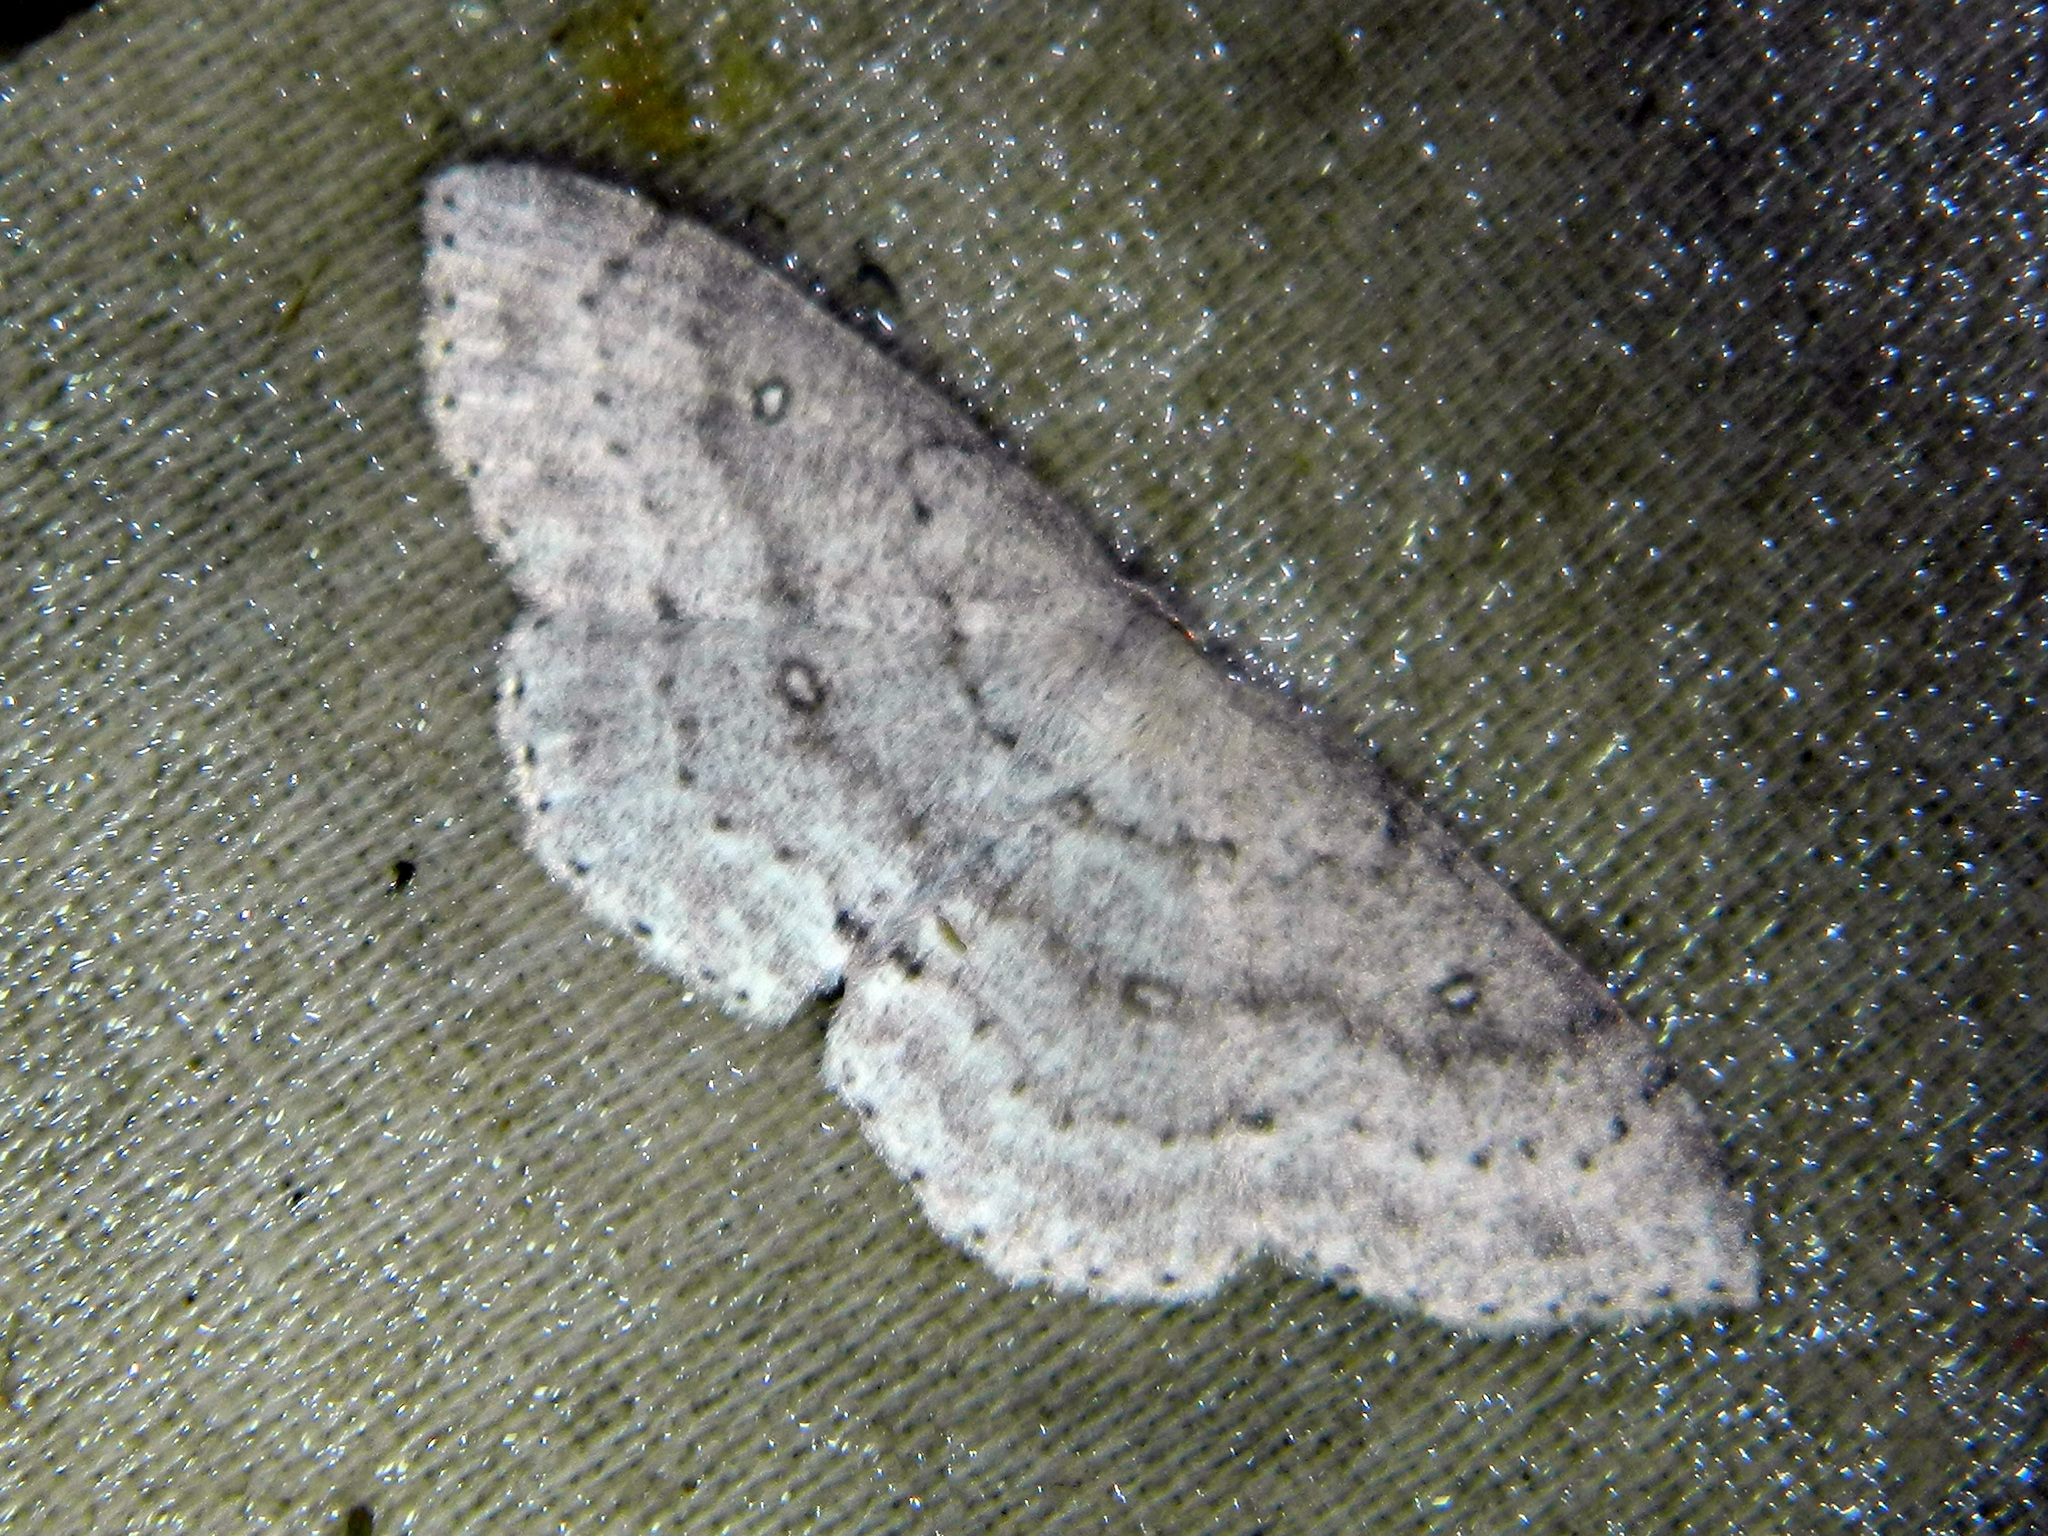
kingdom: Animalia
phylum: Arthropoda
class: Insecta
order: Lepidoptera
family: Geometridae
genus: Cyclophora
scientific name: Cyclophora pendulinaria
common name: Sweet fern geometer
